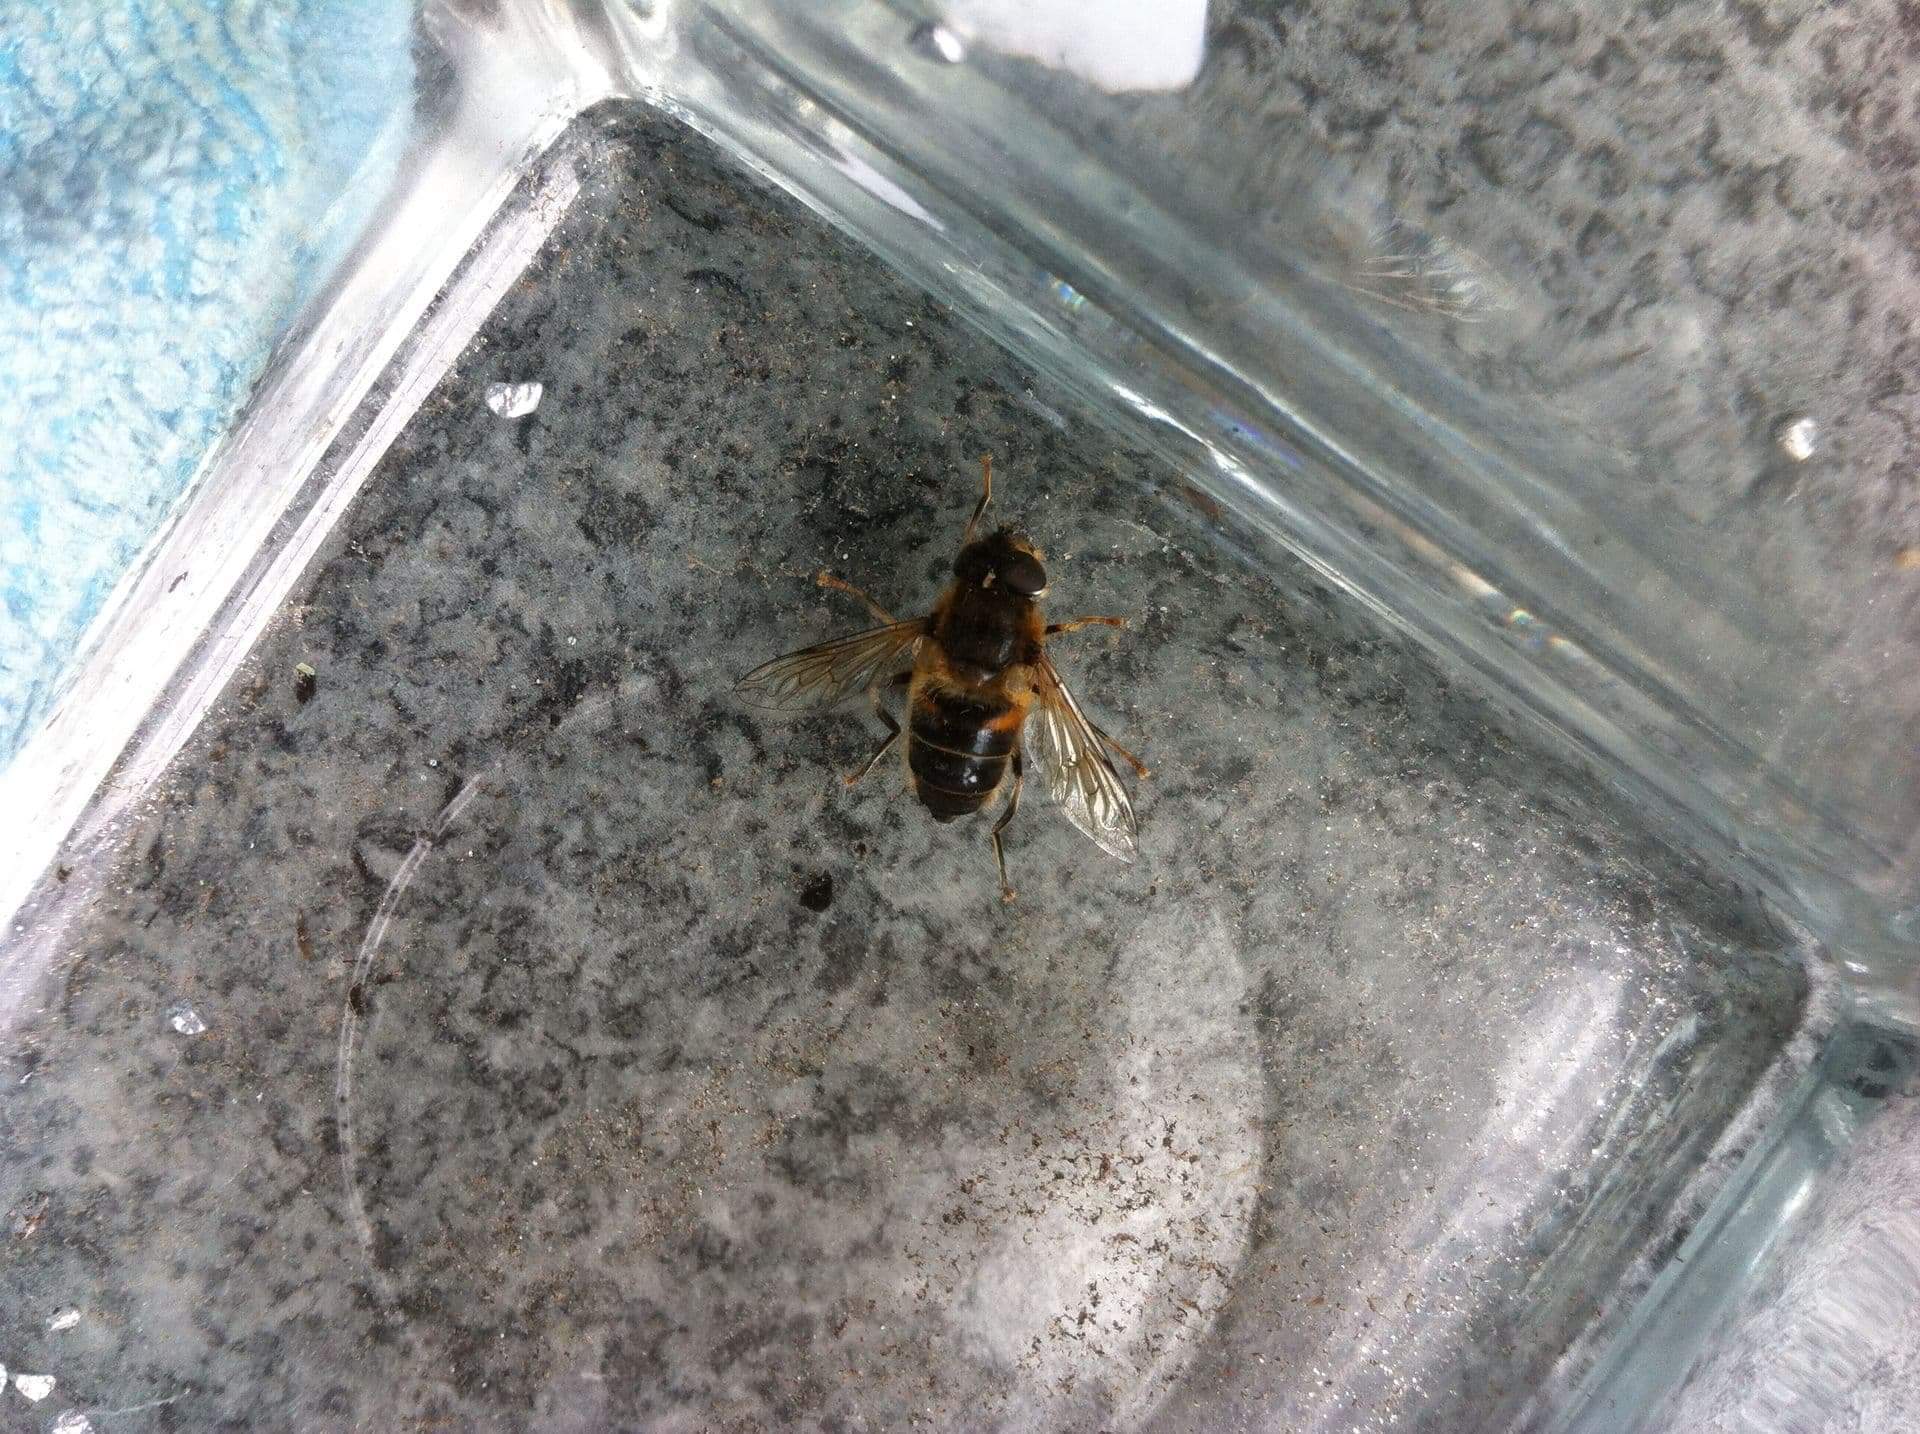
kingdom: Animalia
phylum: Arthropoda
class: Insecta
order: Diptera
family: Syrphidae
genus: Eristalis
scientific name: Eristalis pertinax
